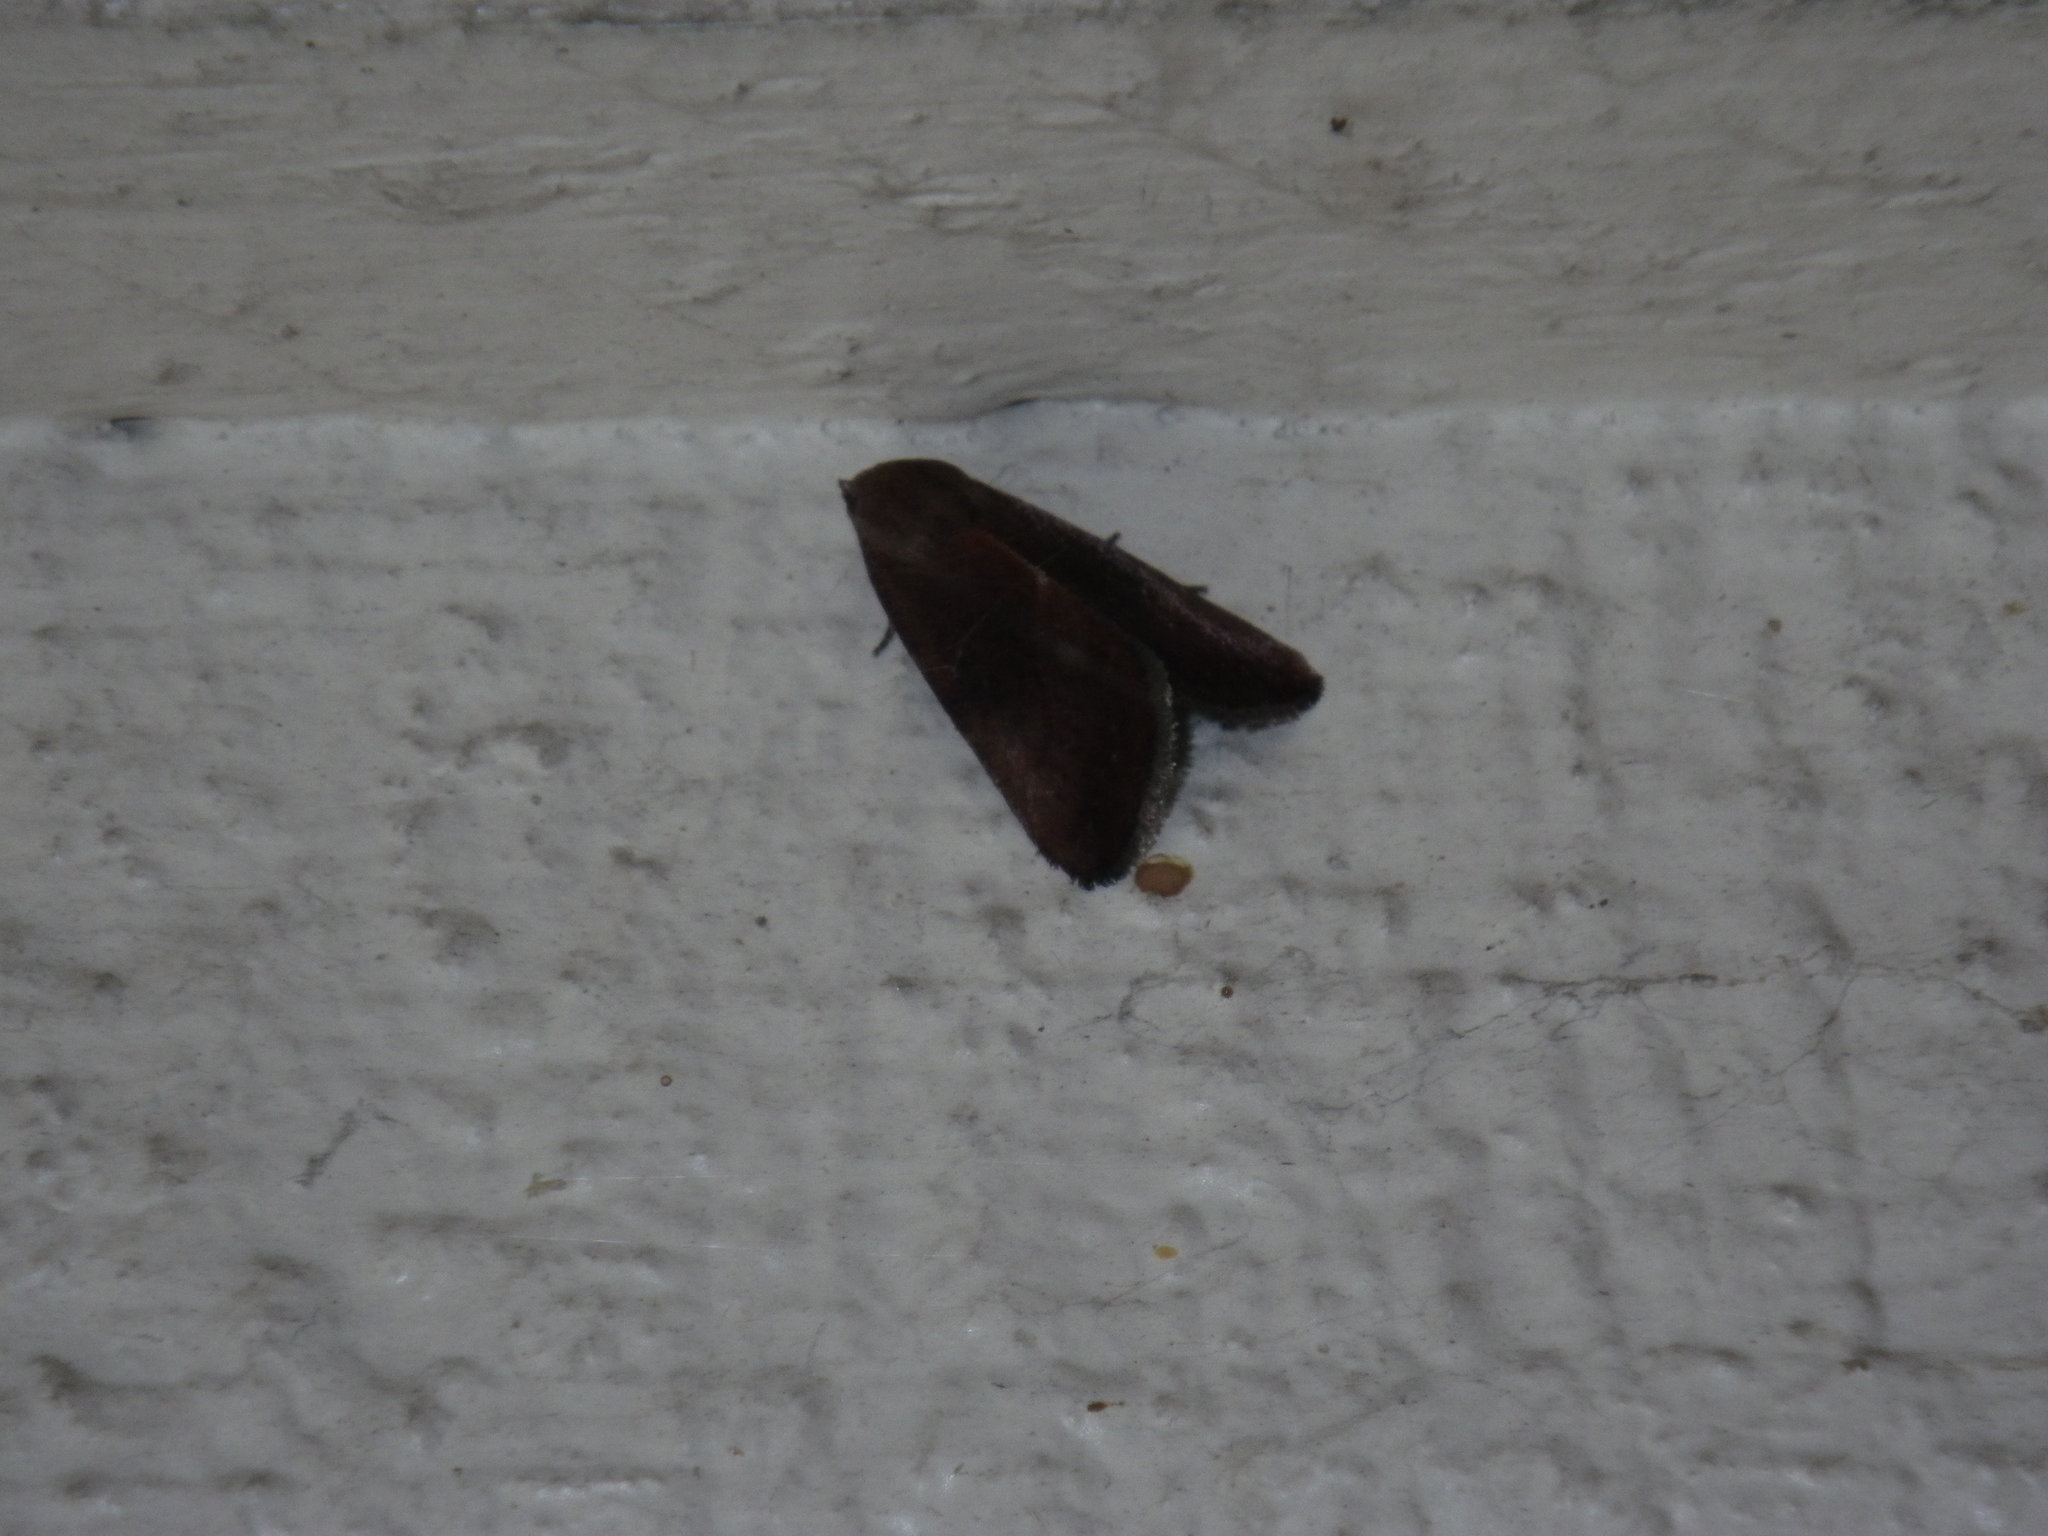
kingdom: Animalia
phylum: Arthropoda
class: Insecta
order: Lepidoptera
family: Noctuidae
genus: Galgula
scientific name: Galgula partita
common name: Wedgeling
